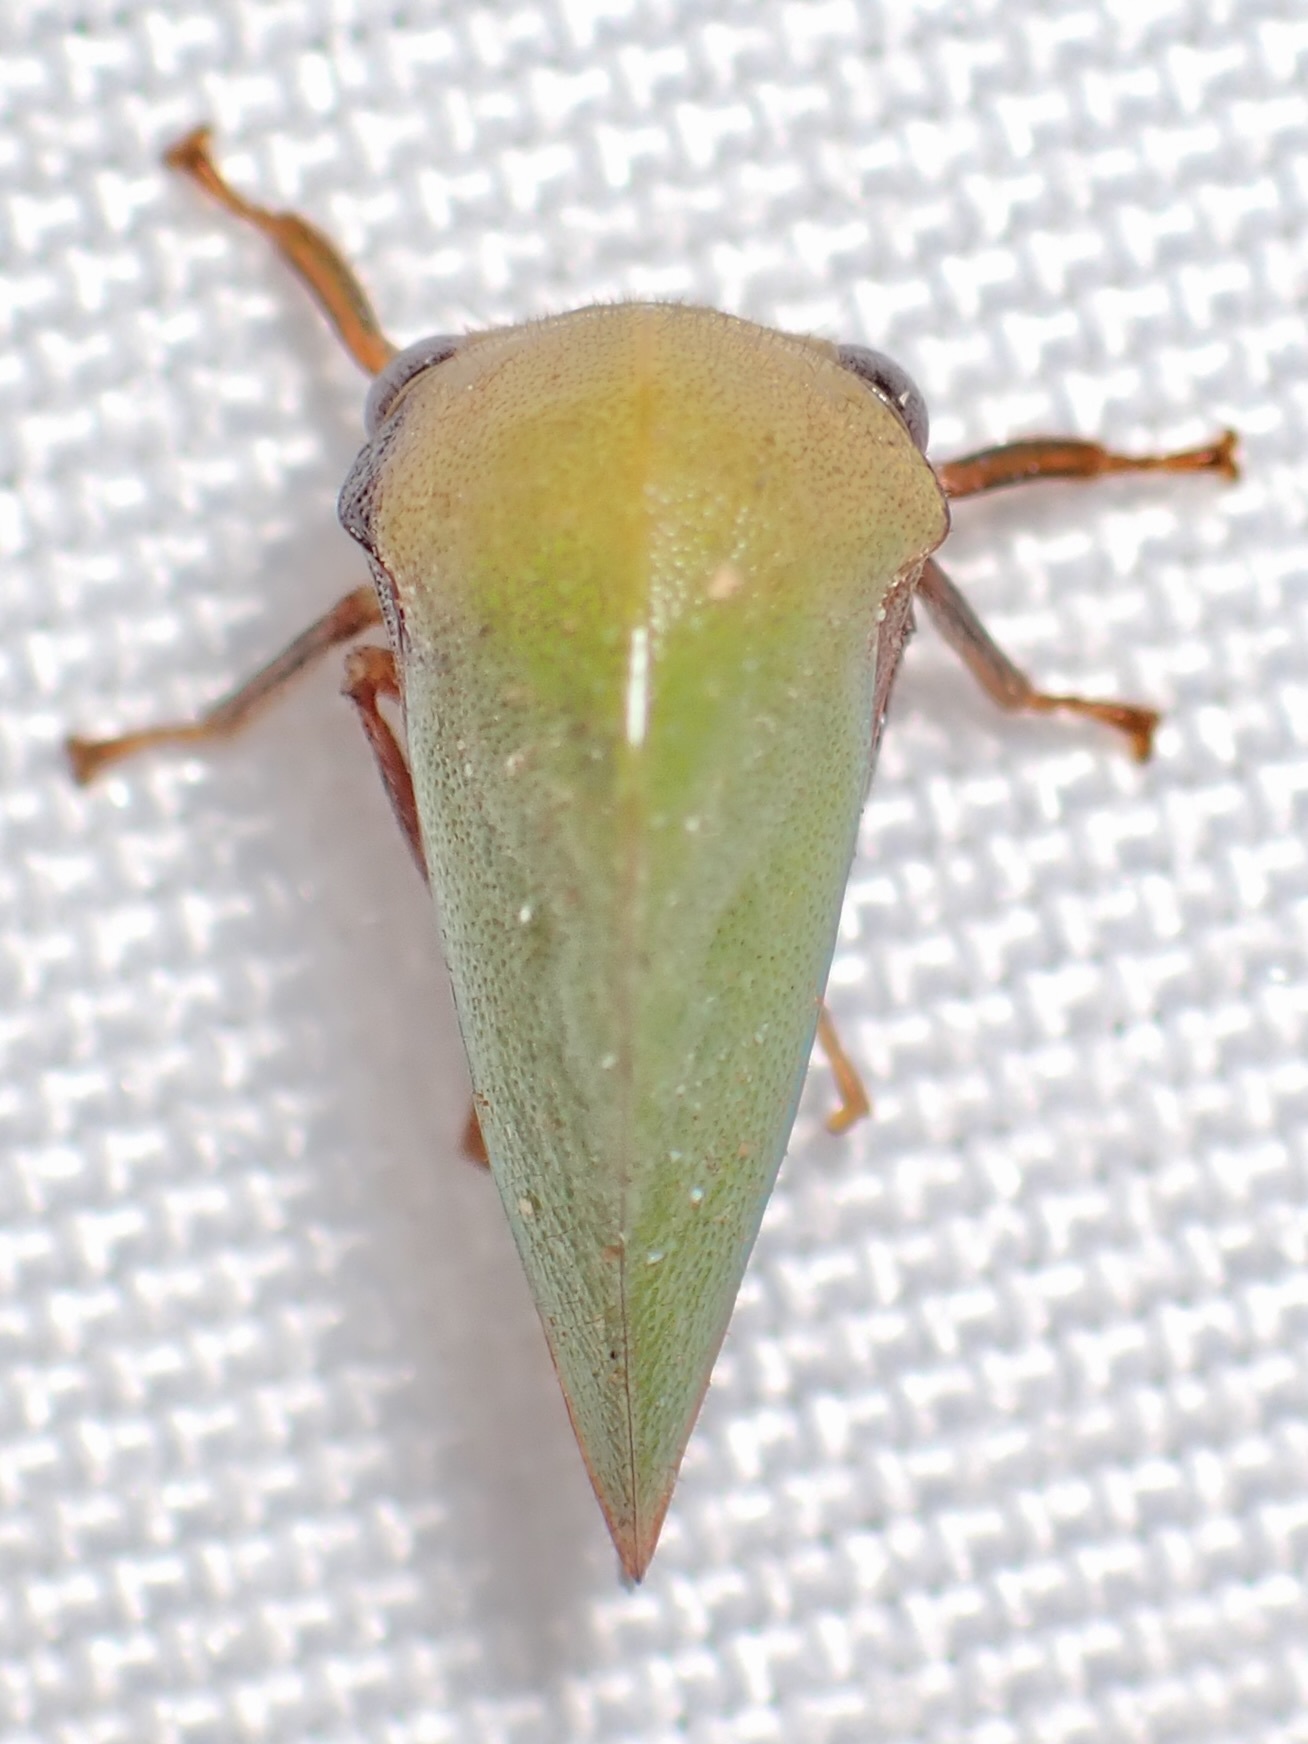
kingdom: Animalia
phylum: Arthropoda
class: Insecta
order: Hemiptera
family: Membracidae
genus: Tropidarnis
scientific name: Tropidarnis tectigera
